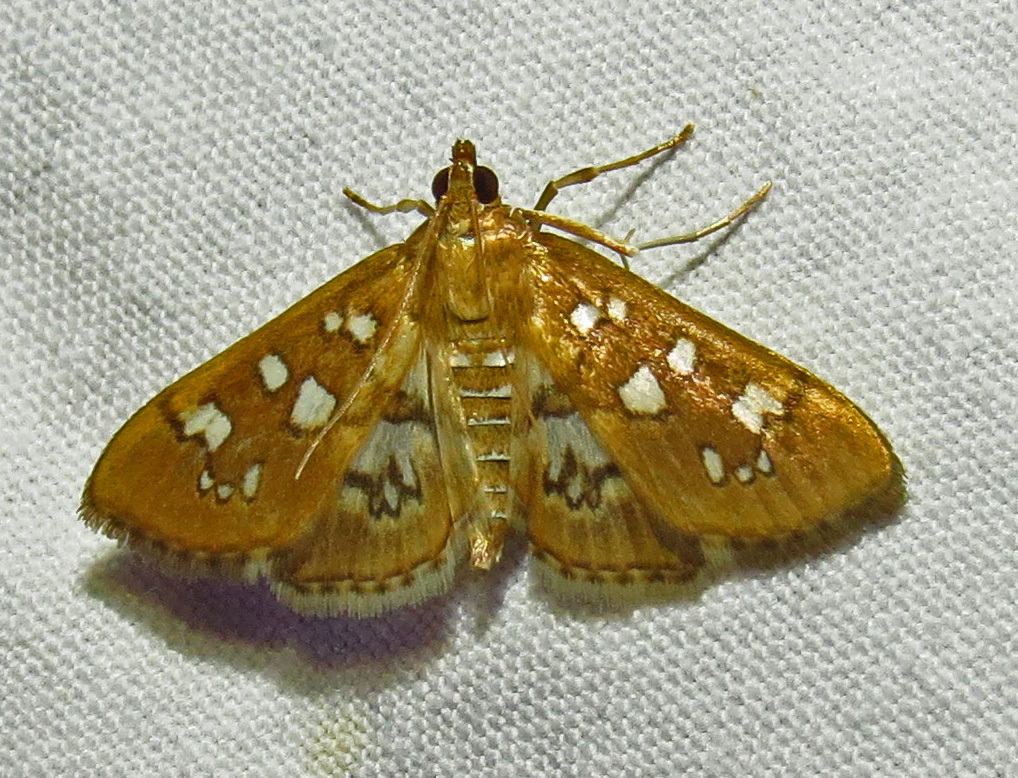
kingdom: Animalia
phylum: Arthropoda
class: Insecta
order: Lepidoptera
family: Crambidae
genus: Samea
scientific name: Samea baccatalis
